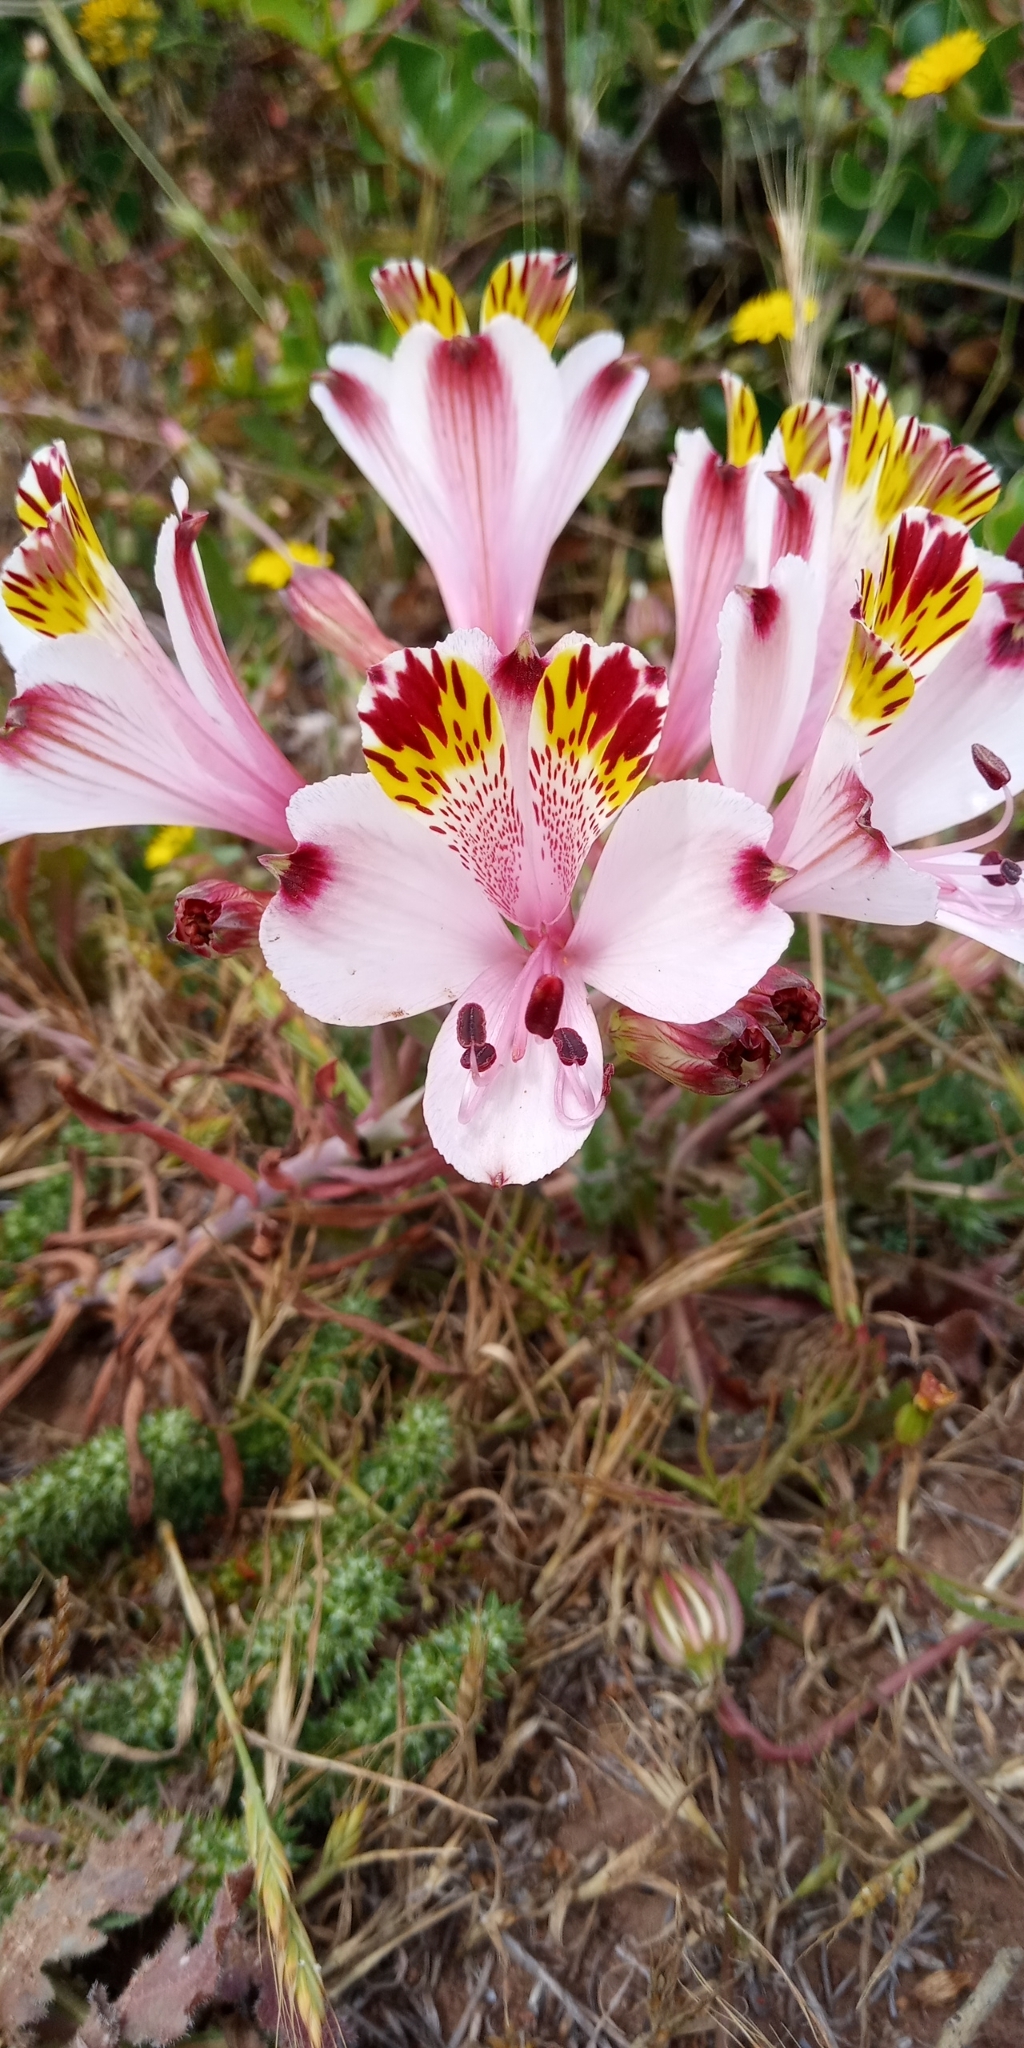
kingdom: Plantae
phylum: Tracheophyta
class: Liliopsida
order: Liliales
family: Alstroemeriaceae
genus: Alstroemeria
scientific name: Alstroemeria pulchra
